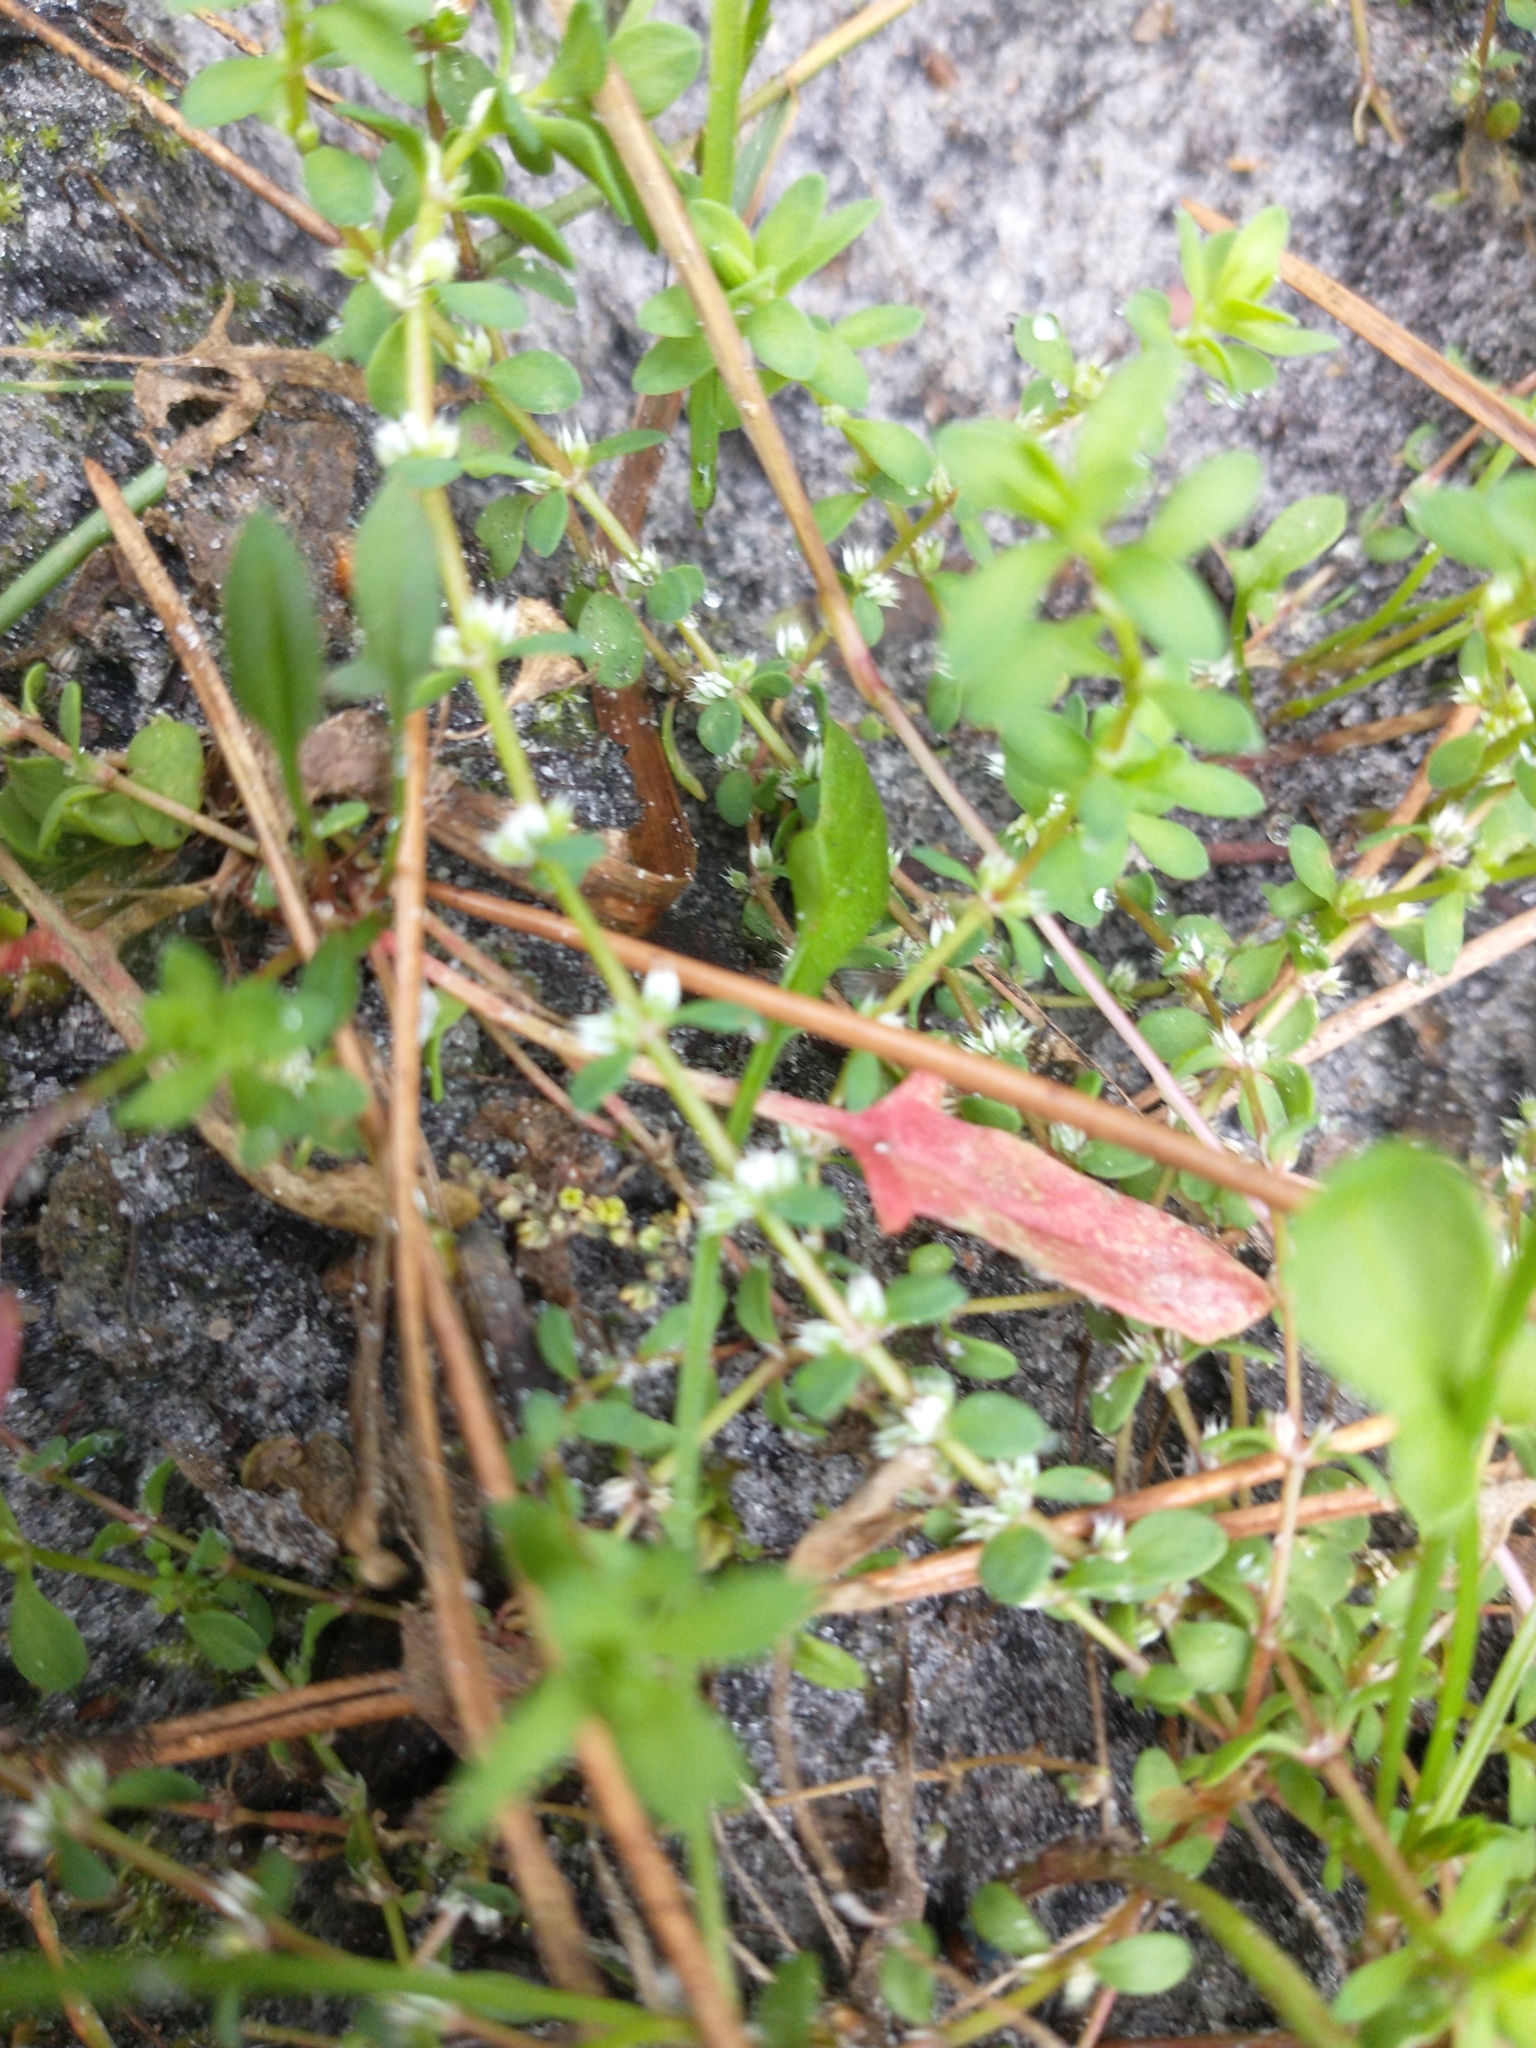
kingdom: Plantae
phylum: Tracheophyta
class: Magnoliopsida
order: Caryophyllales
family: Caryophyllaceae
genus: Illecebrum
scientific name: Illecebrum verticillatum
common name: Coral necklace
